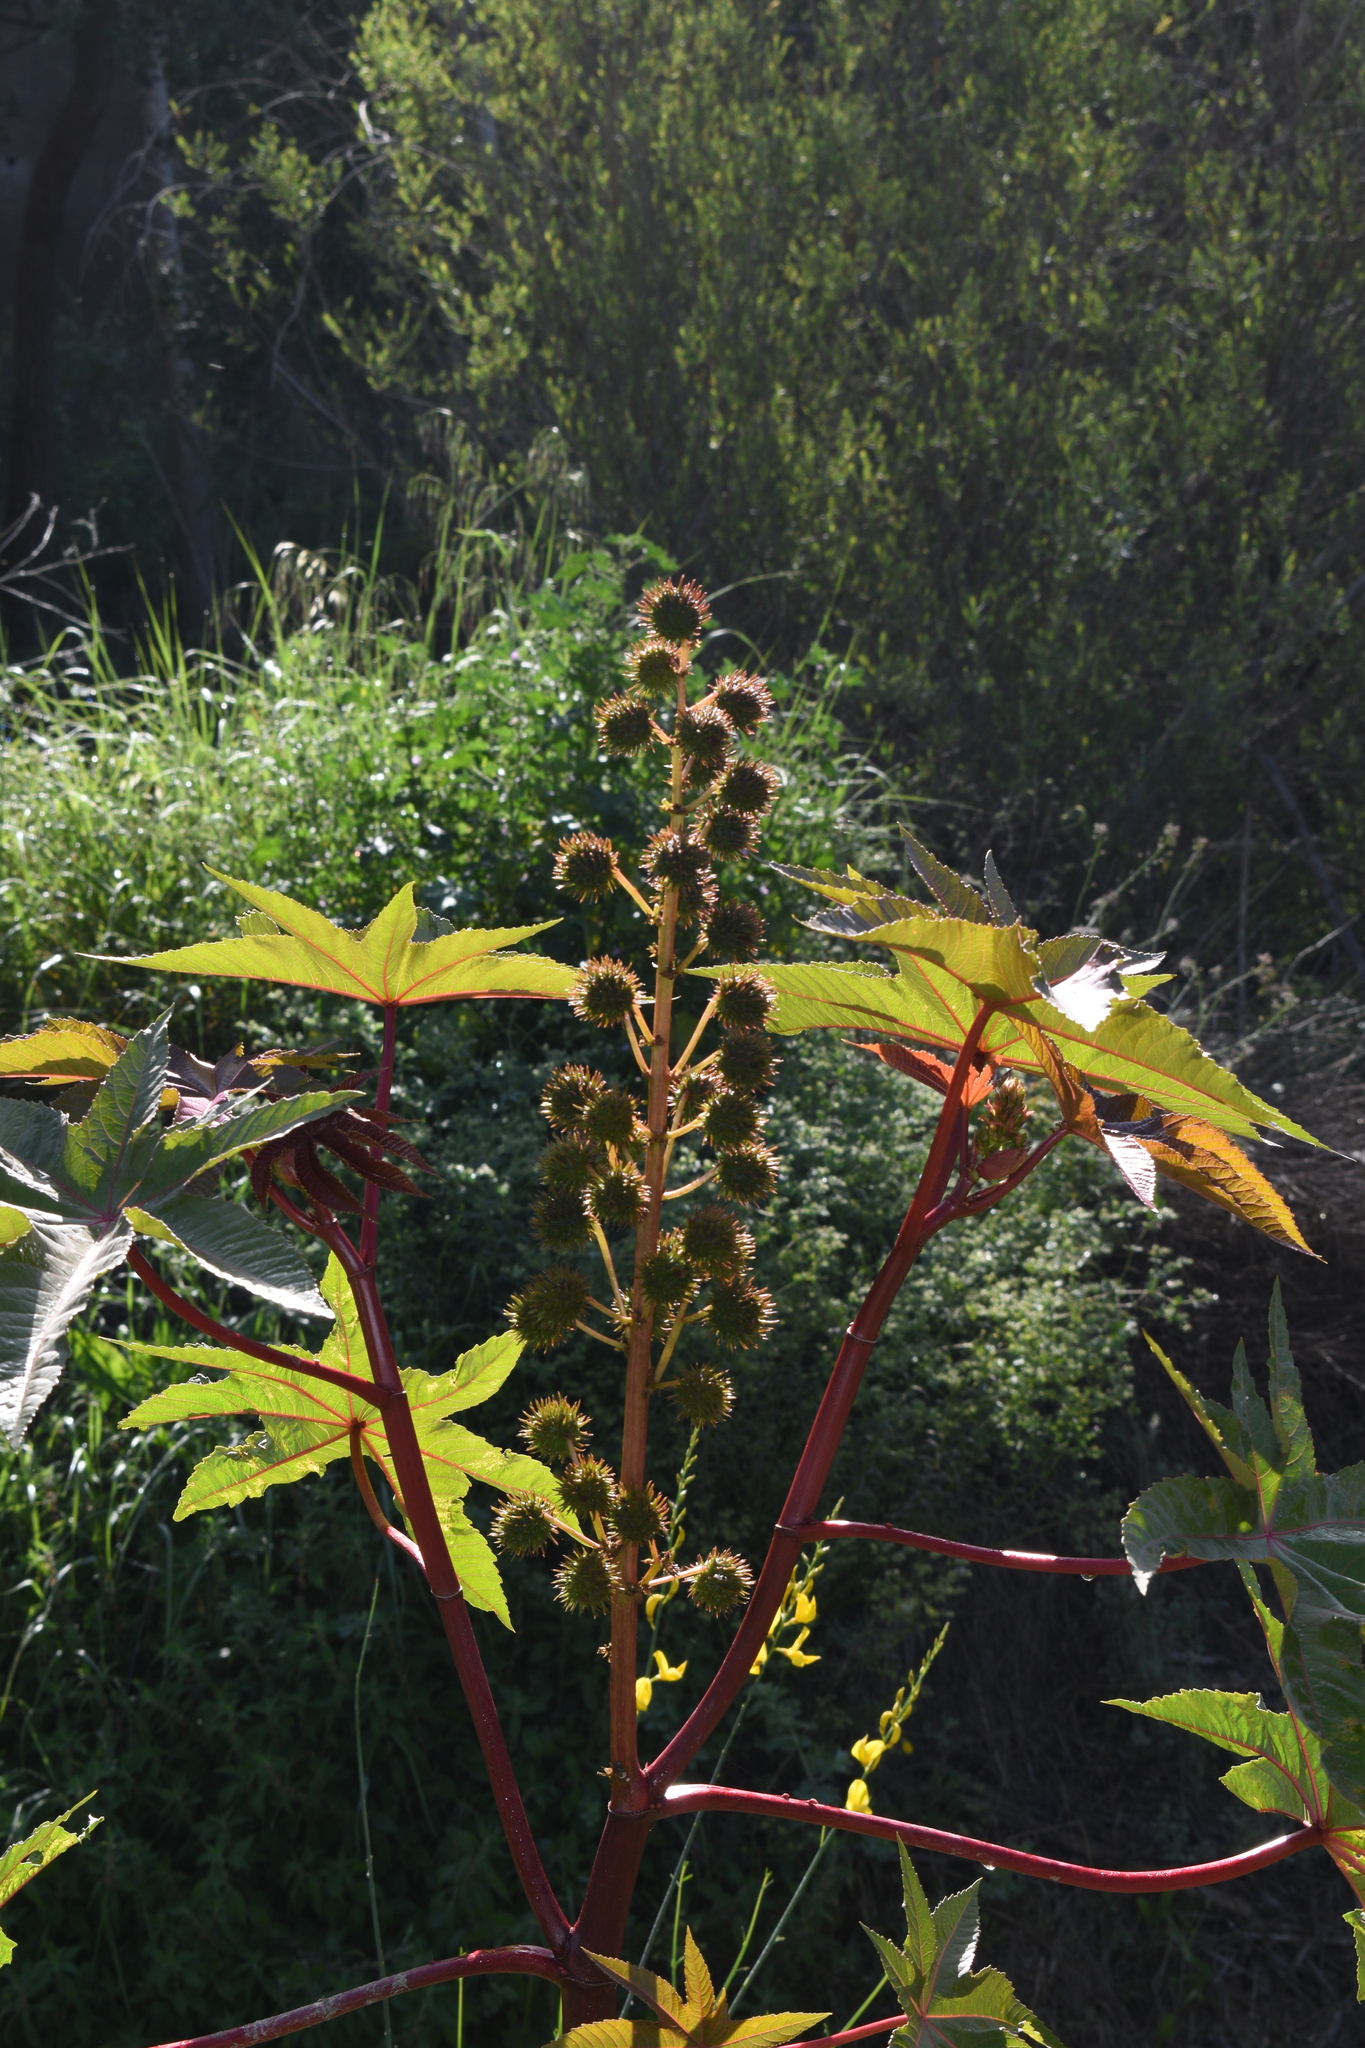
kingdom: Plantae
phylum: Tracheophyta
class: Magnoliopsida
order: Malpighiales
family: Euphorbiaceae
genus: Ricinus
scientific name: Ricinus communis
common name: Castor-oil-plant
